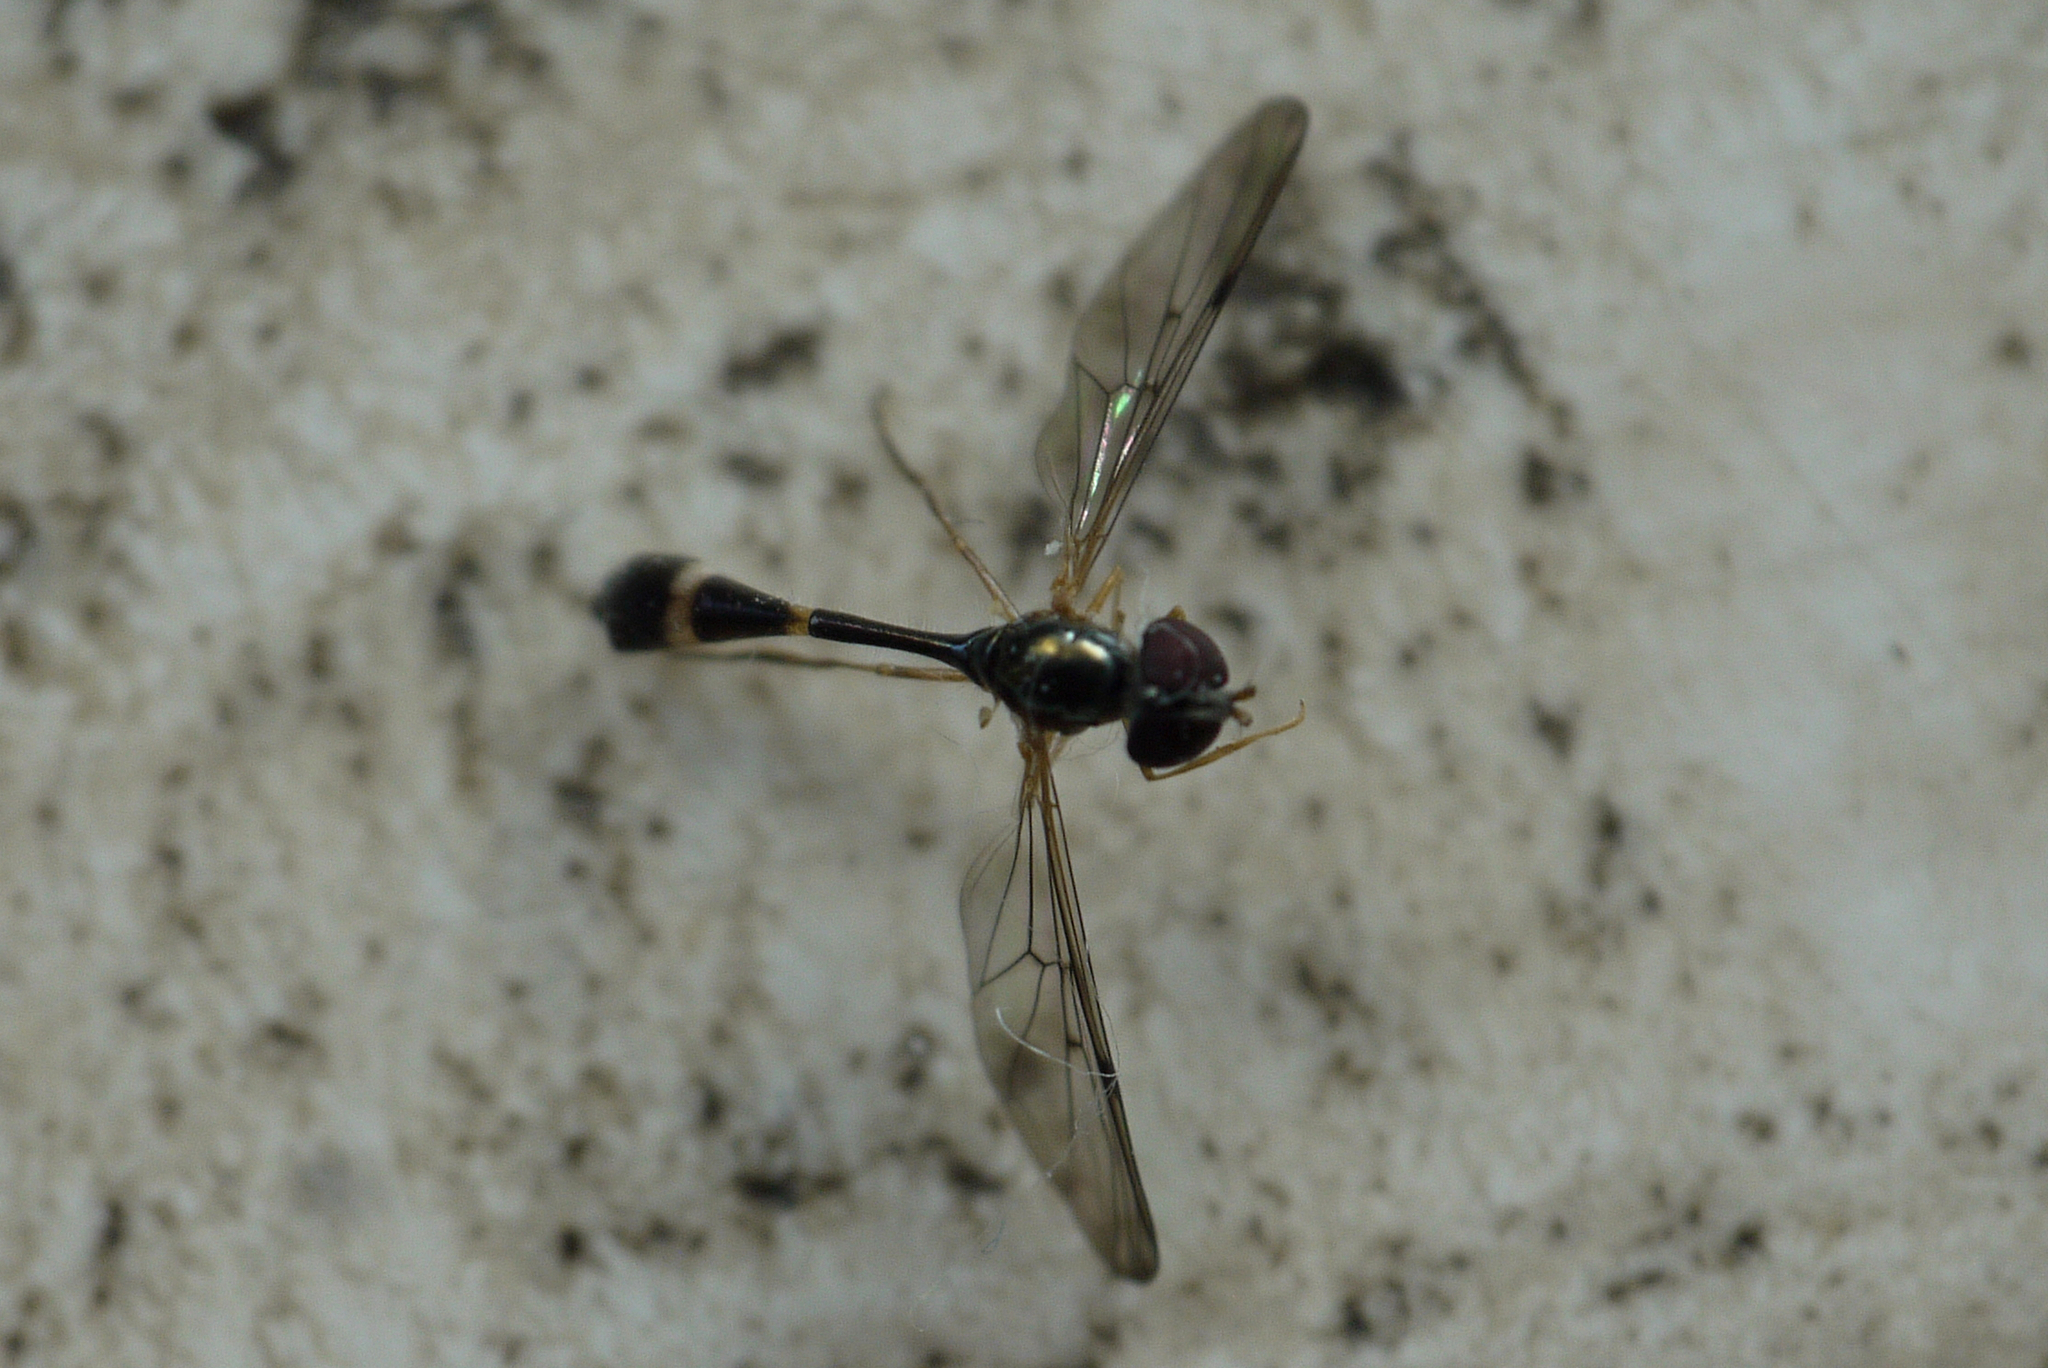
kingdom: Animalia
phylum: Arthropoda
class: Insecta
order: Diptera
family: Syrphidae
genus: Baccha
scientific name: Baccha elongata
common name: Common dainty
